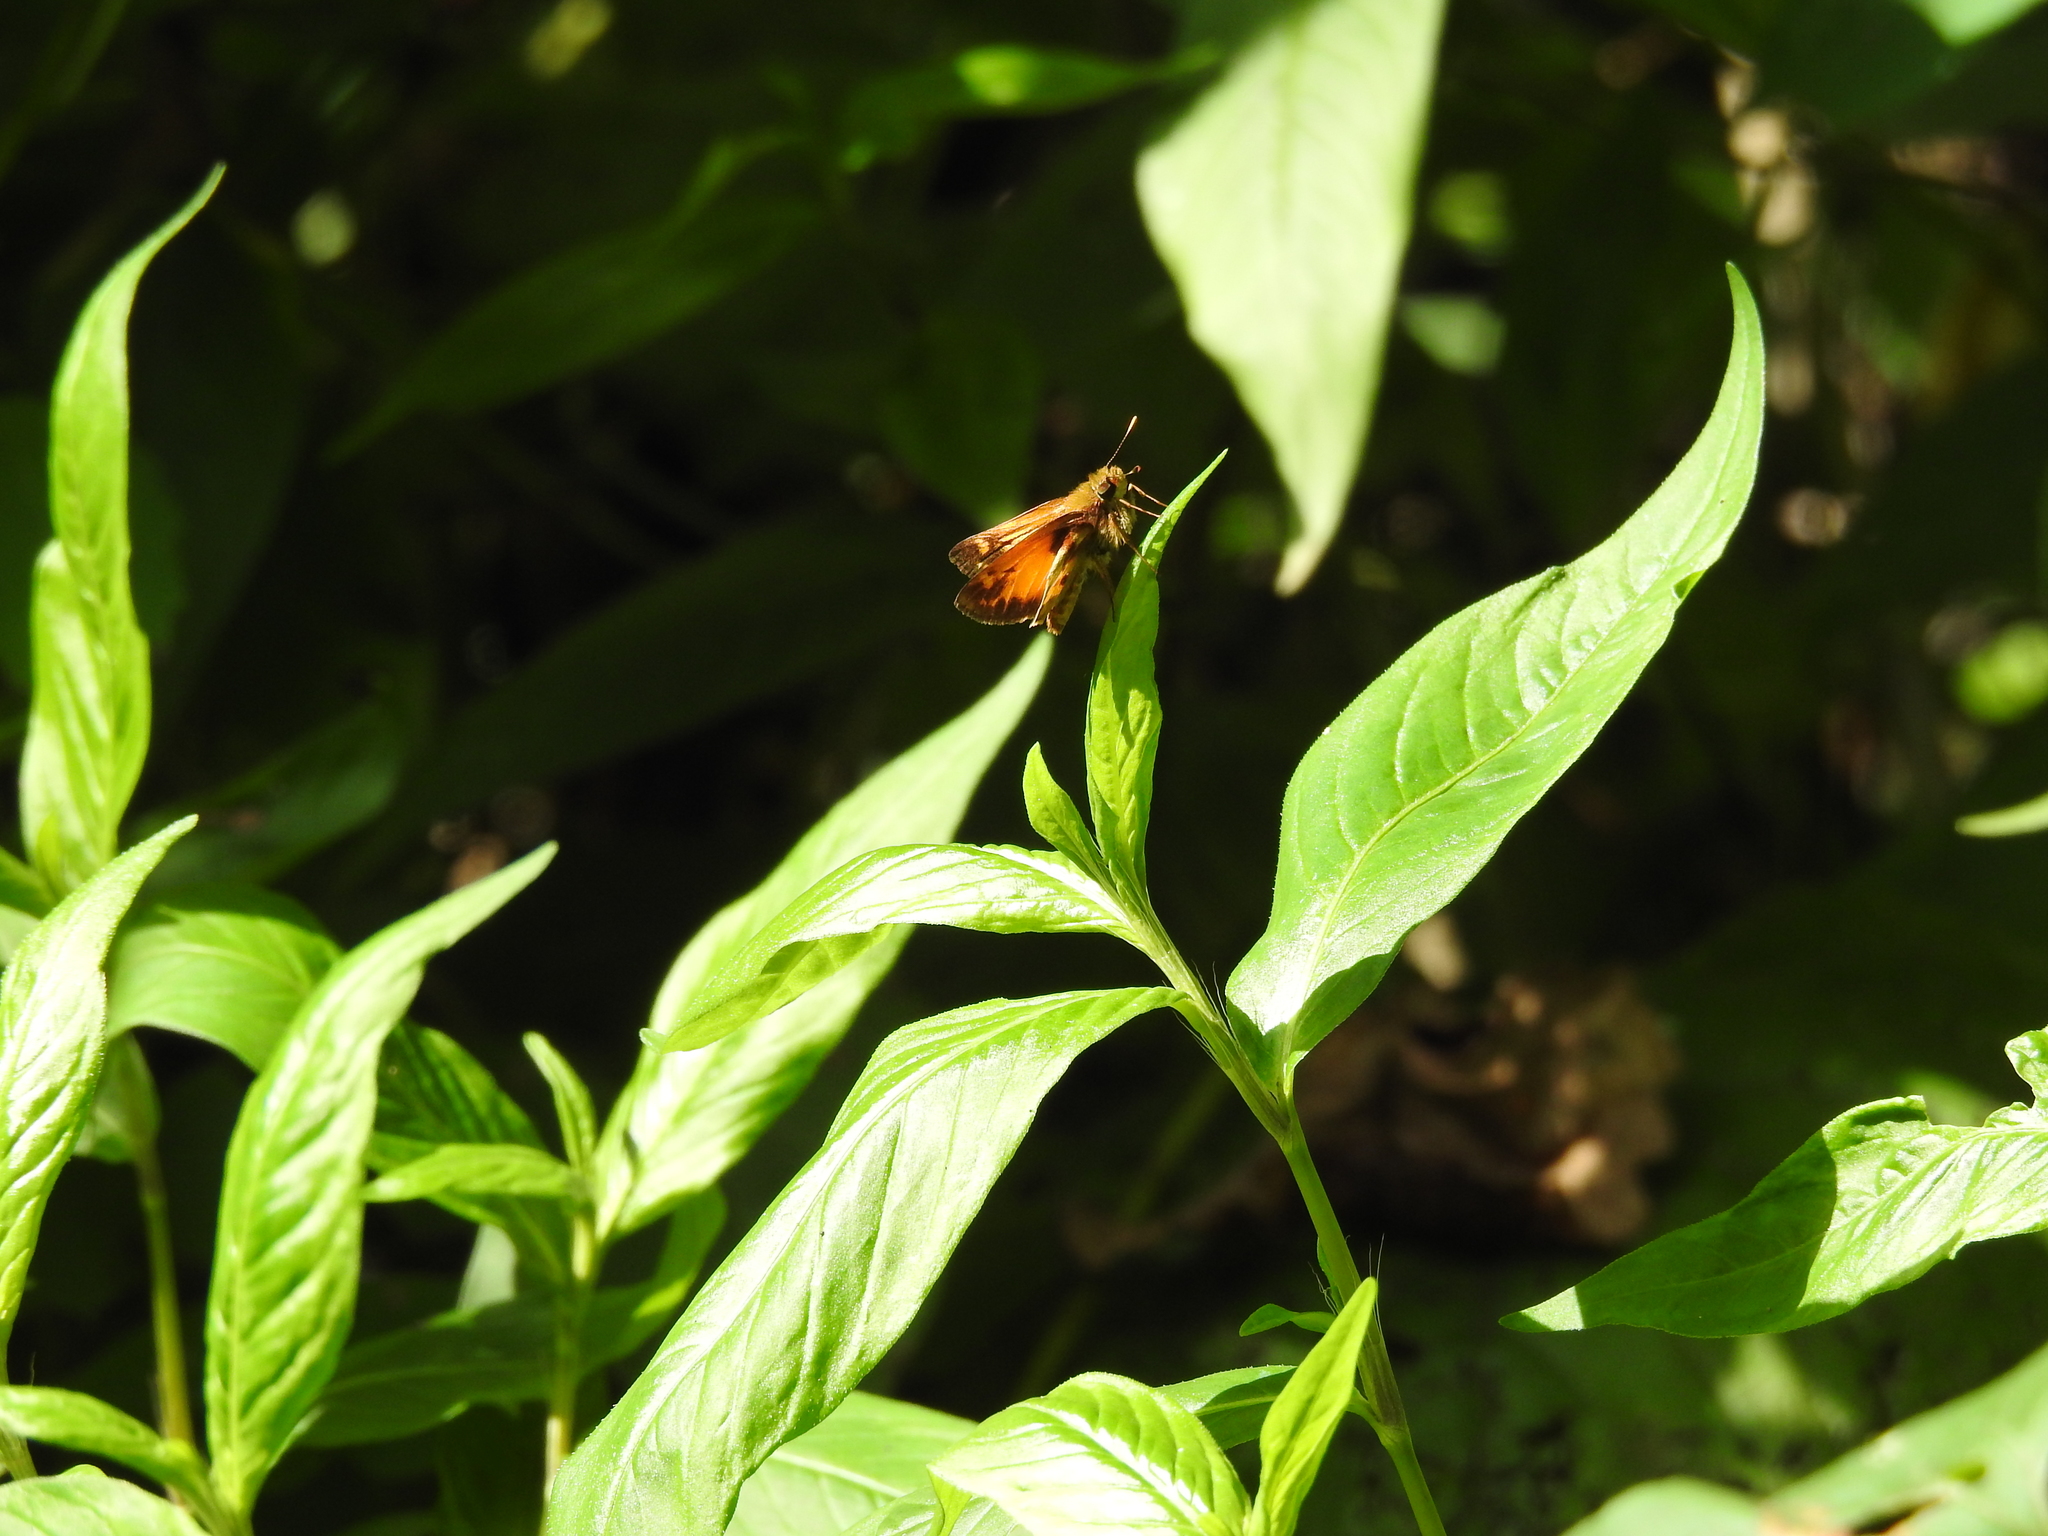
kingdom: Animalia
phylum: Arthropoda
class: Insecta
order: Lepidoptera
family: Hesperiidae
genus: Lon
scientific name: Lon zabulon
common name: Zabulon skipper
